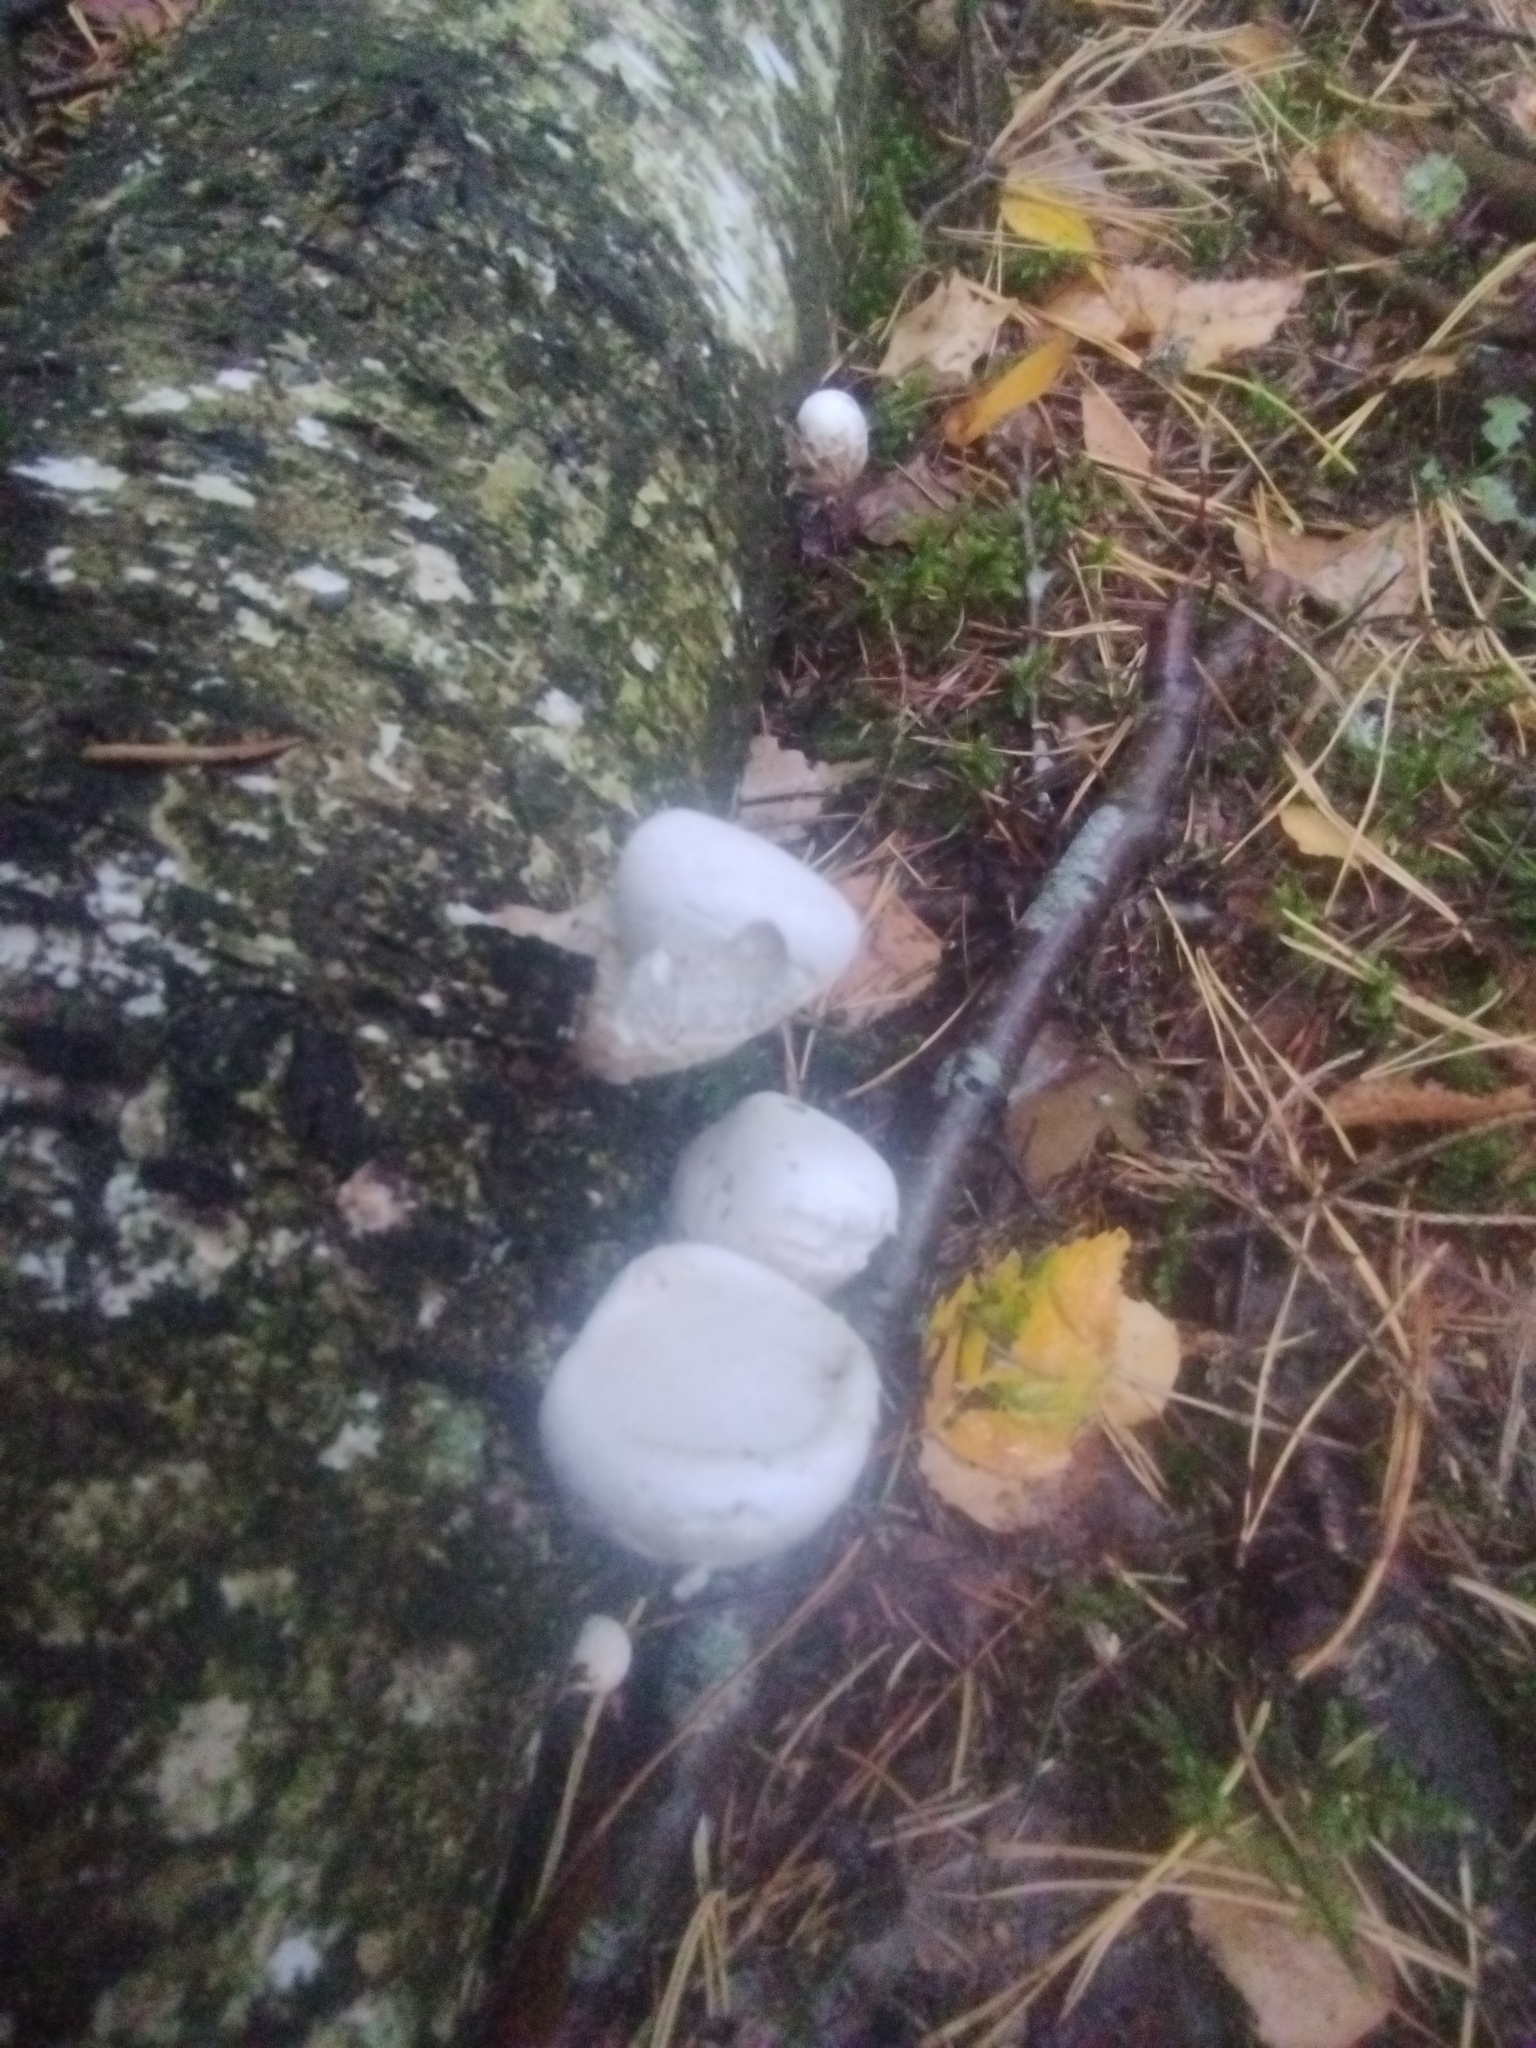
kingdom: Fungi
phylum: Basidiomycota
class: Agaricomycetes
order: Polyporales
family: Fomitopsidaceae
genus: Fomitopsis
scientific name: Fomitopsis betulina
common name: Birch polypore
